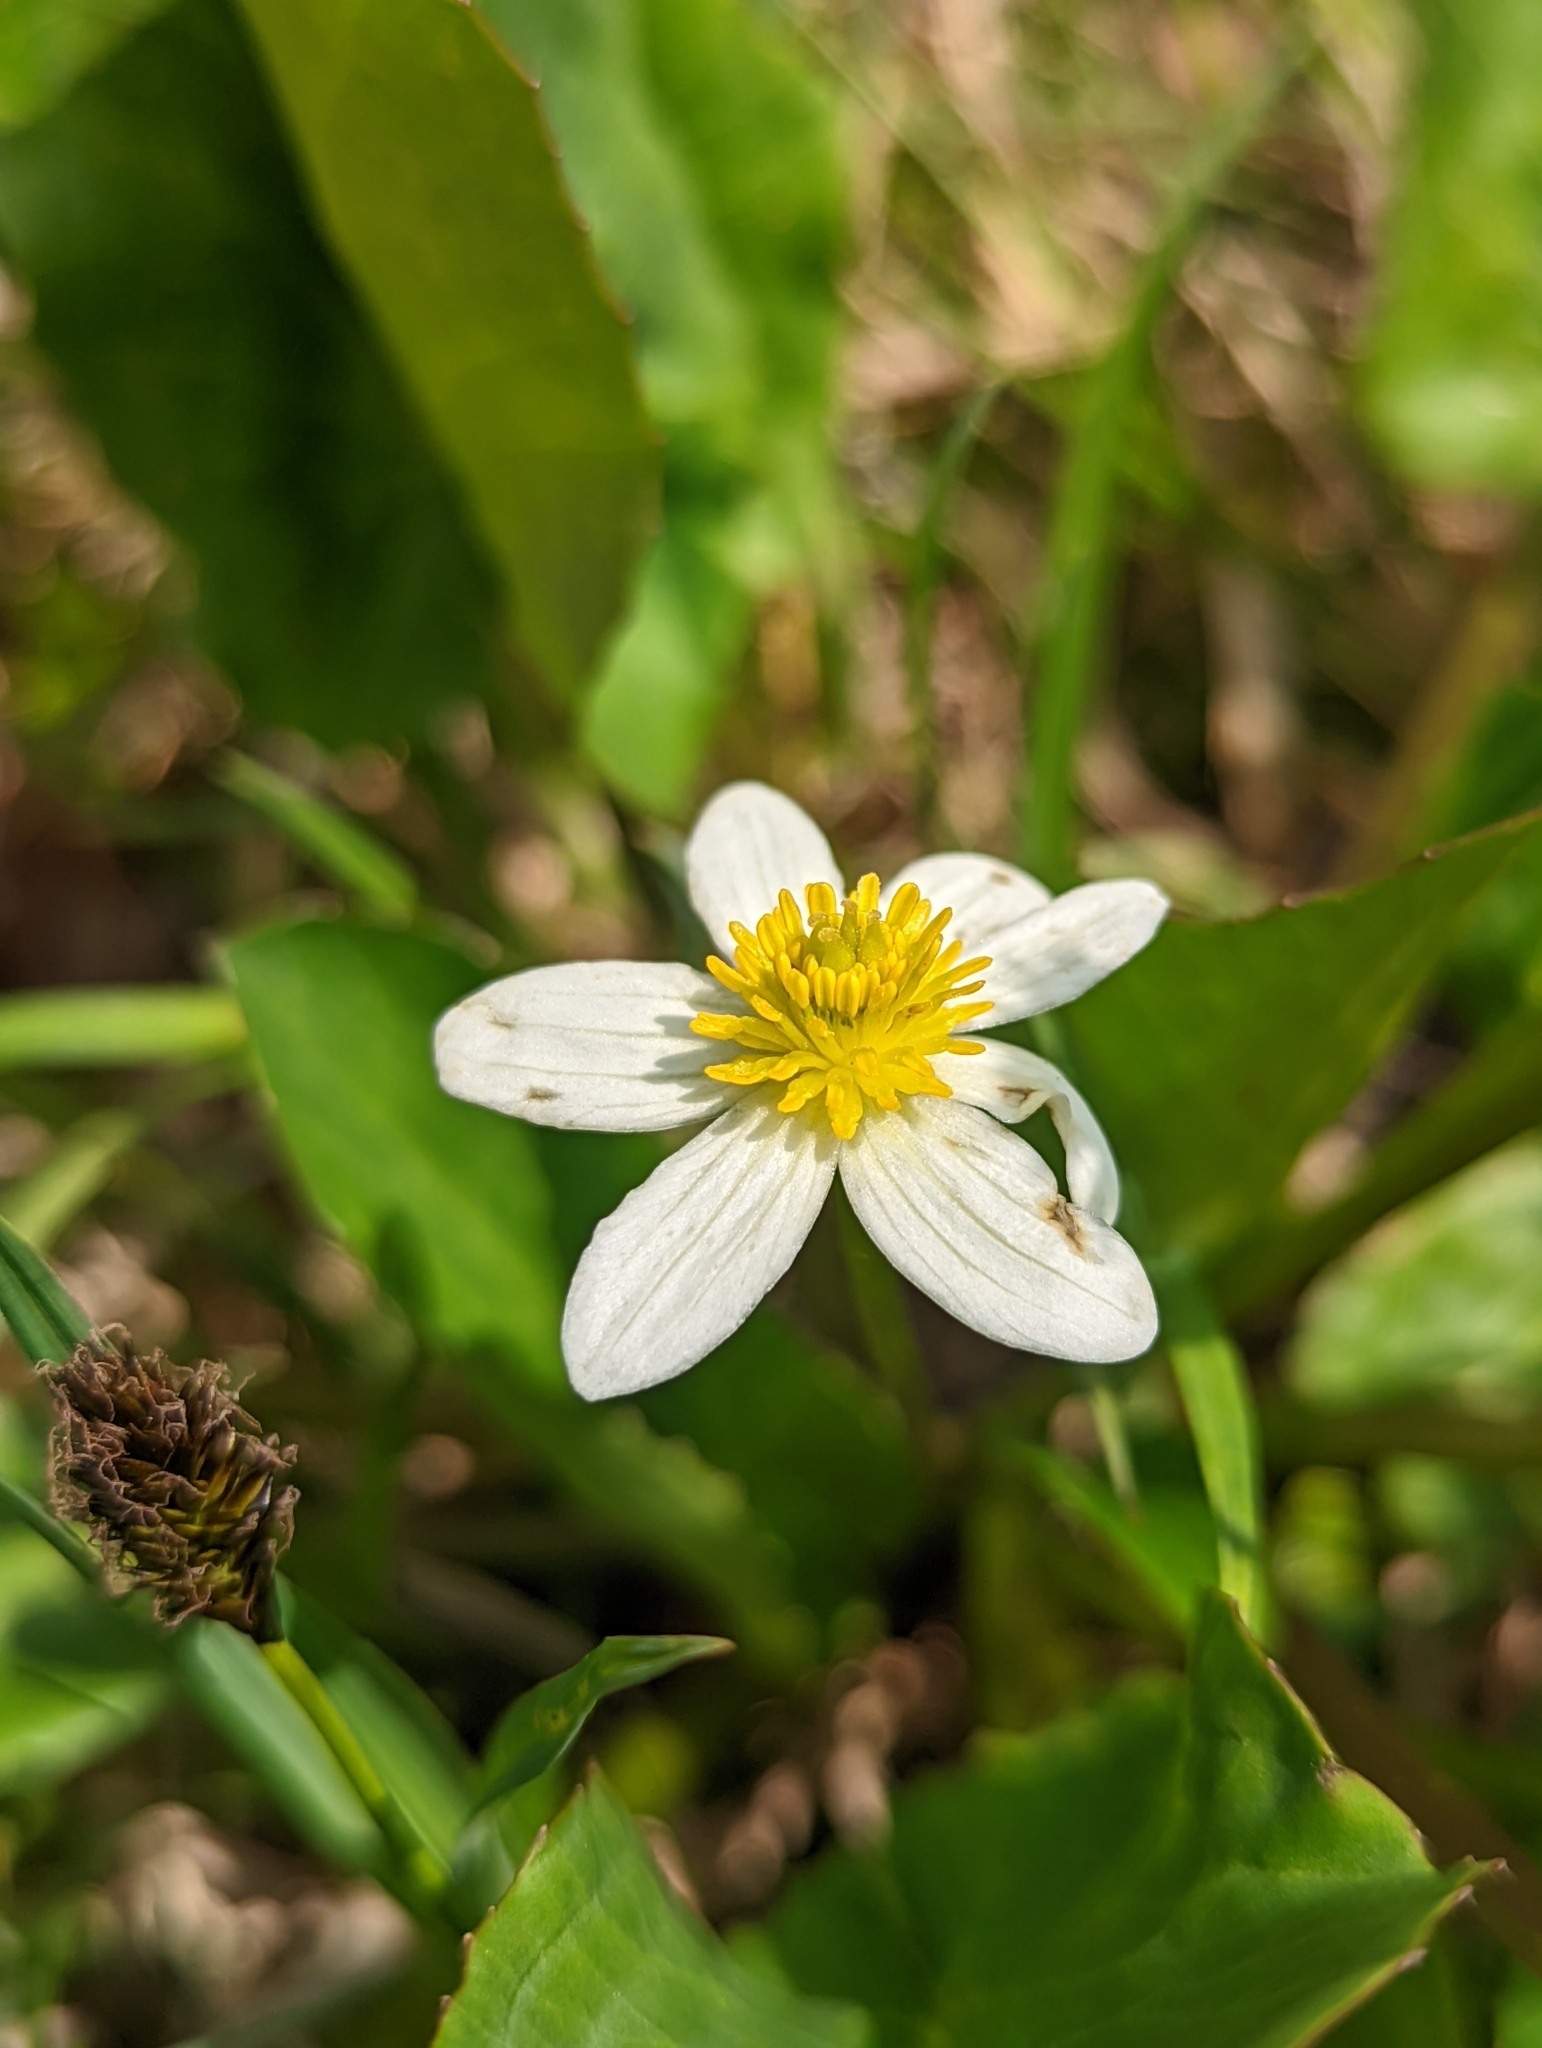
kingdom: Plantae
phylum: Tracheophyta
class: Magnoliopsida
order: Ranunculales
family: Ranunculaceae
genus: Caltha
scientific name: Caltha leptosepala
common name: Elkslip
